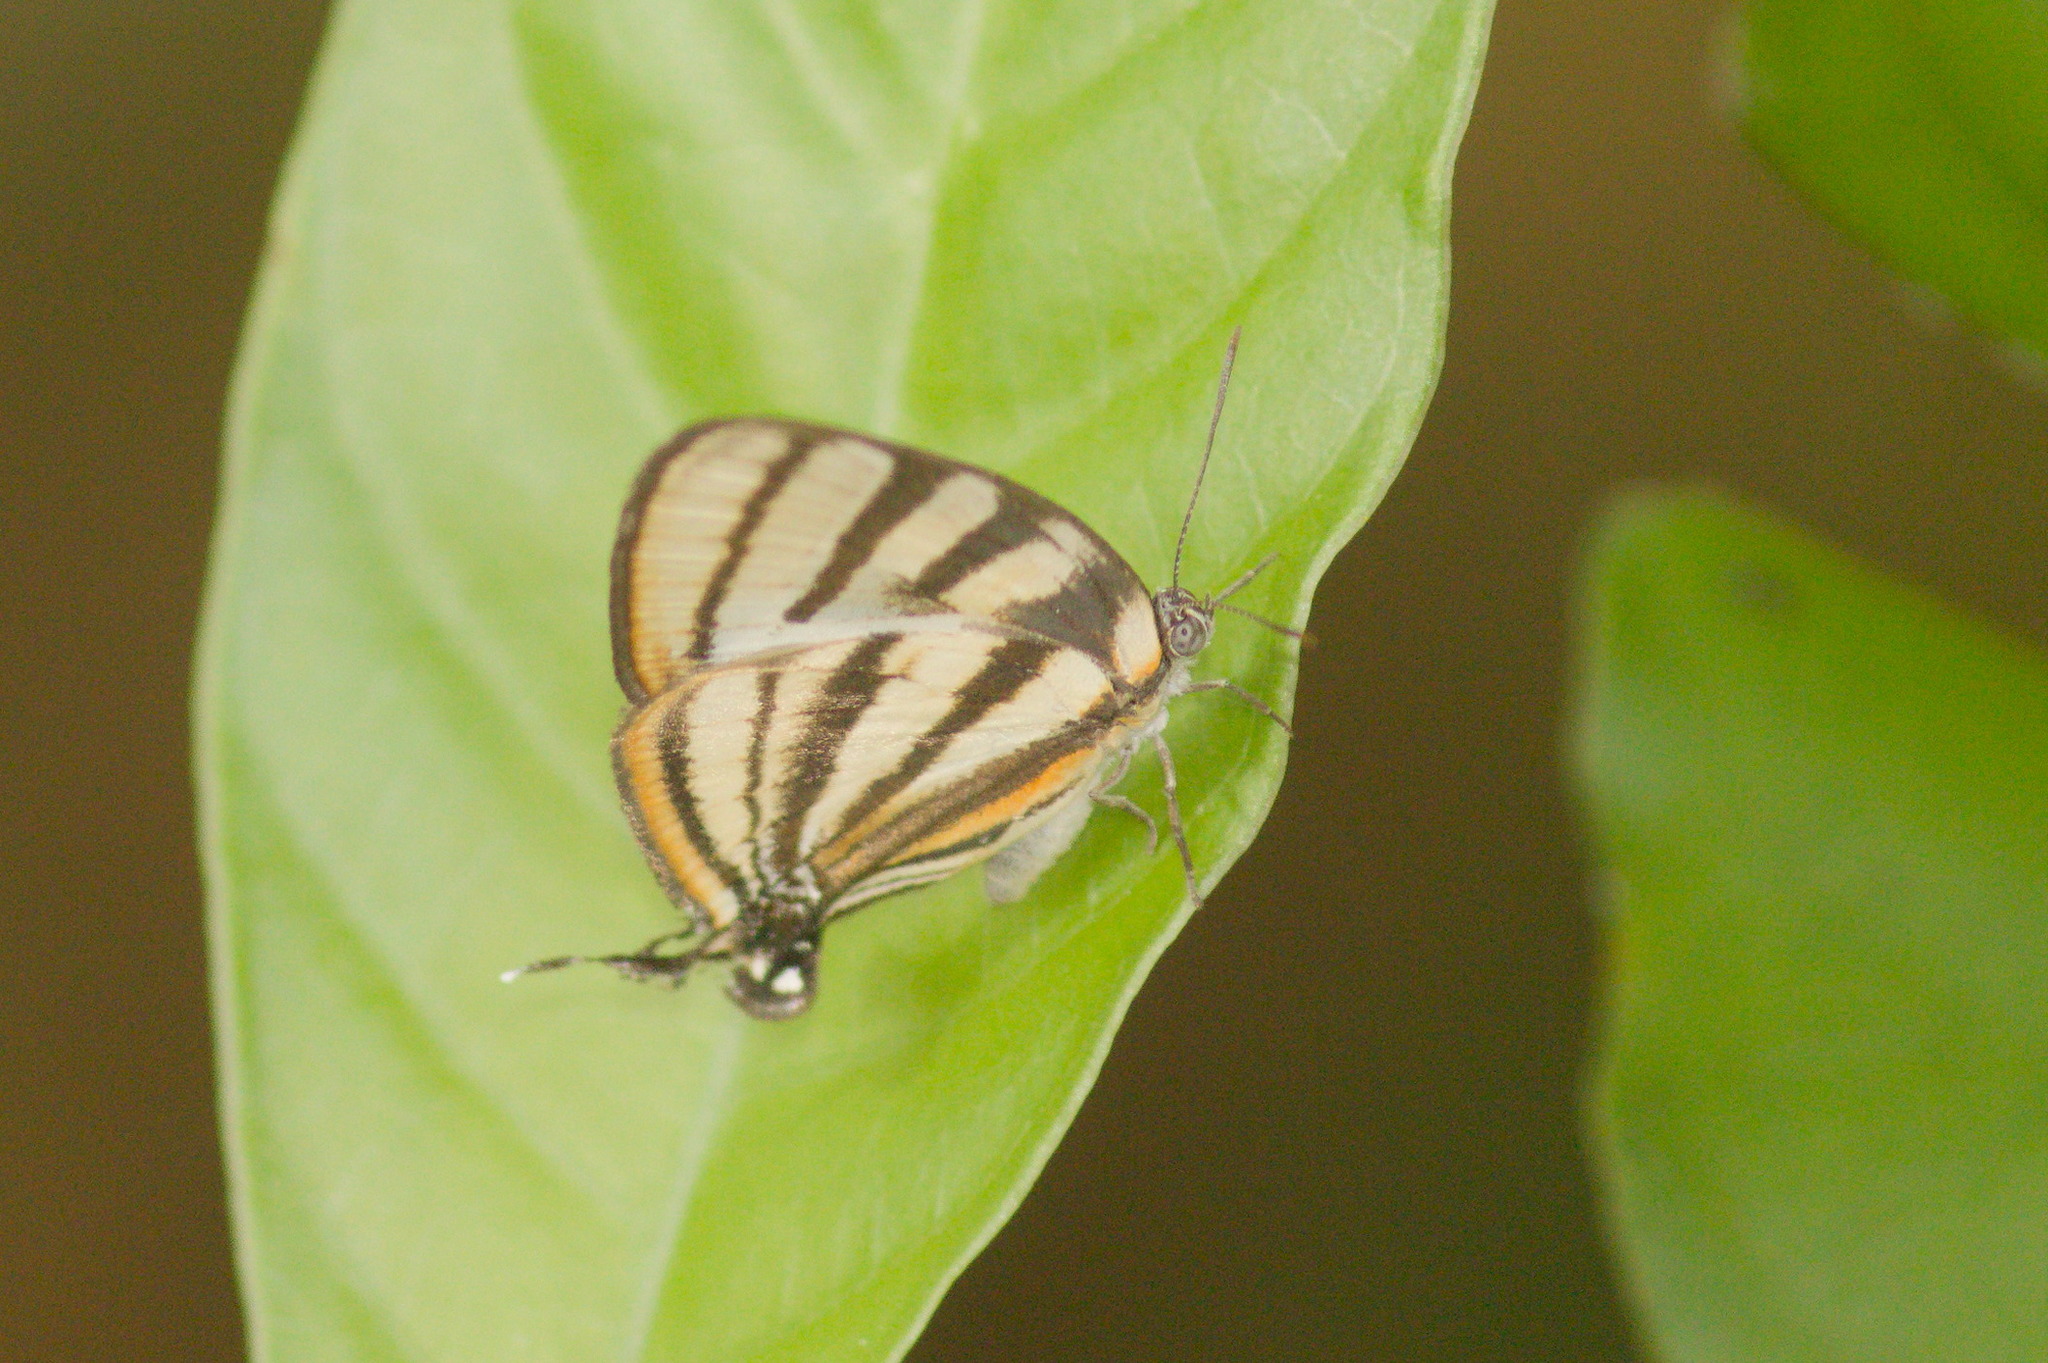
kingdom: Animalia
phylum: Arthropoda
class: Insecta
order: Lepidoptera
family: Lycaenidae
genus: Arawacus
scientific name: Arawacus separata
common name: Separated stripestreak
